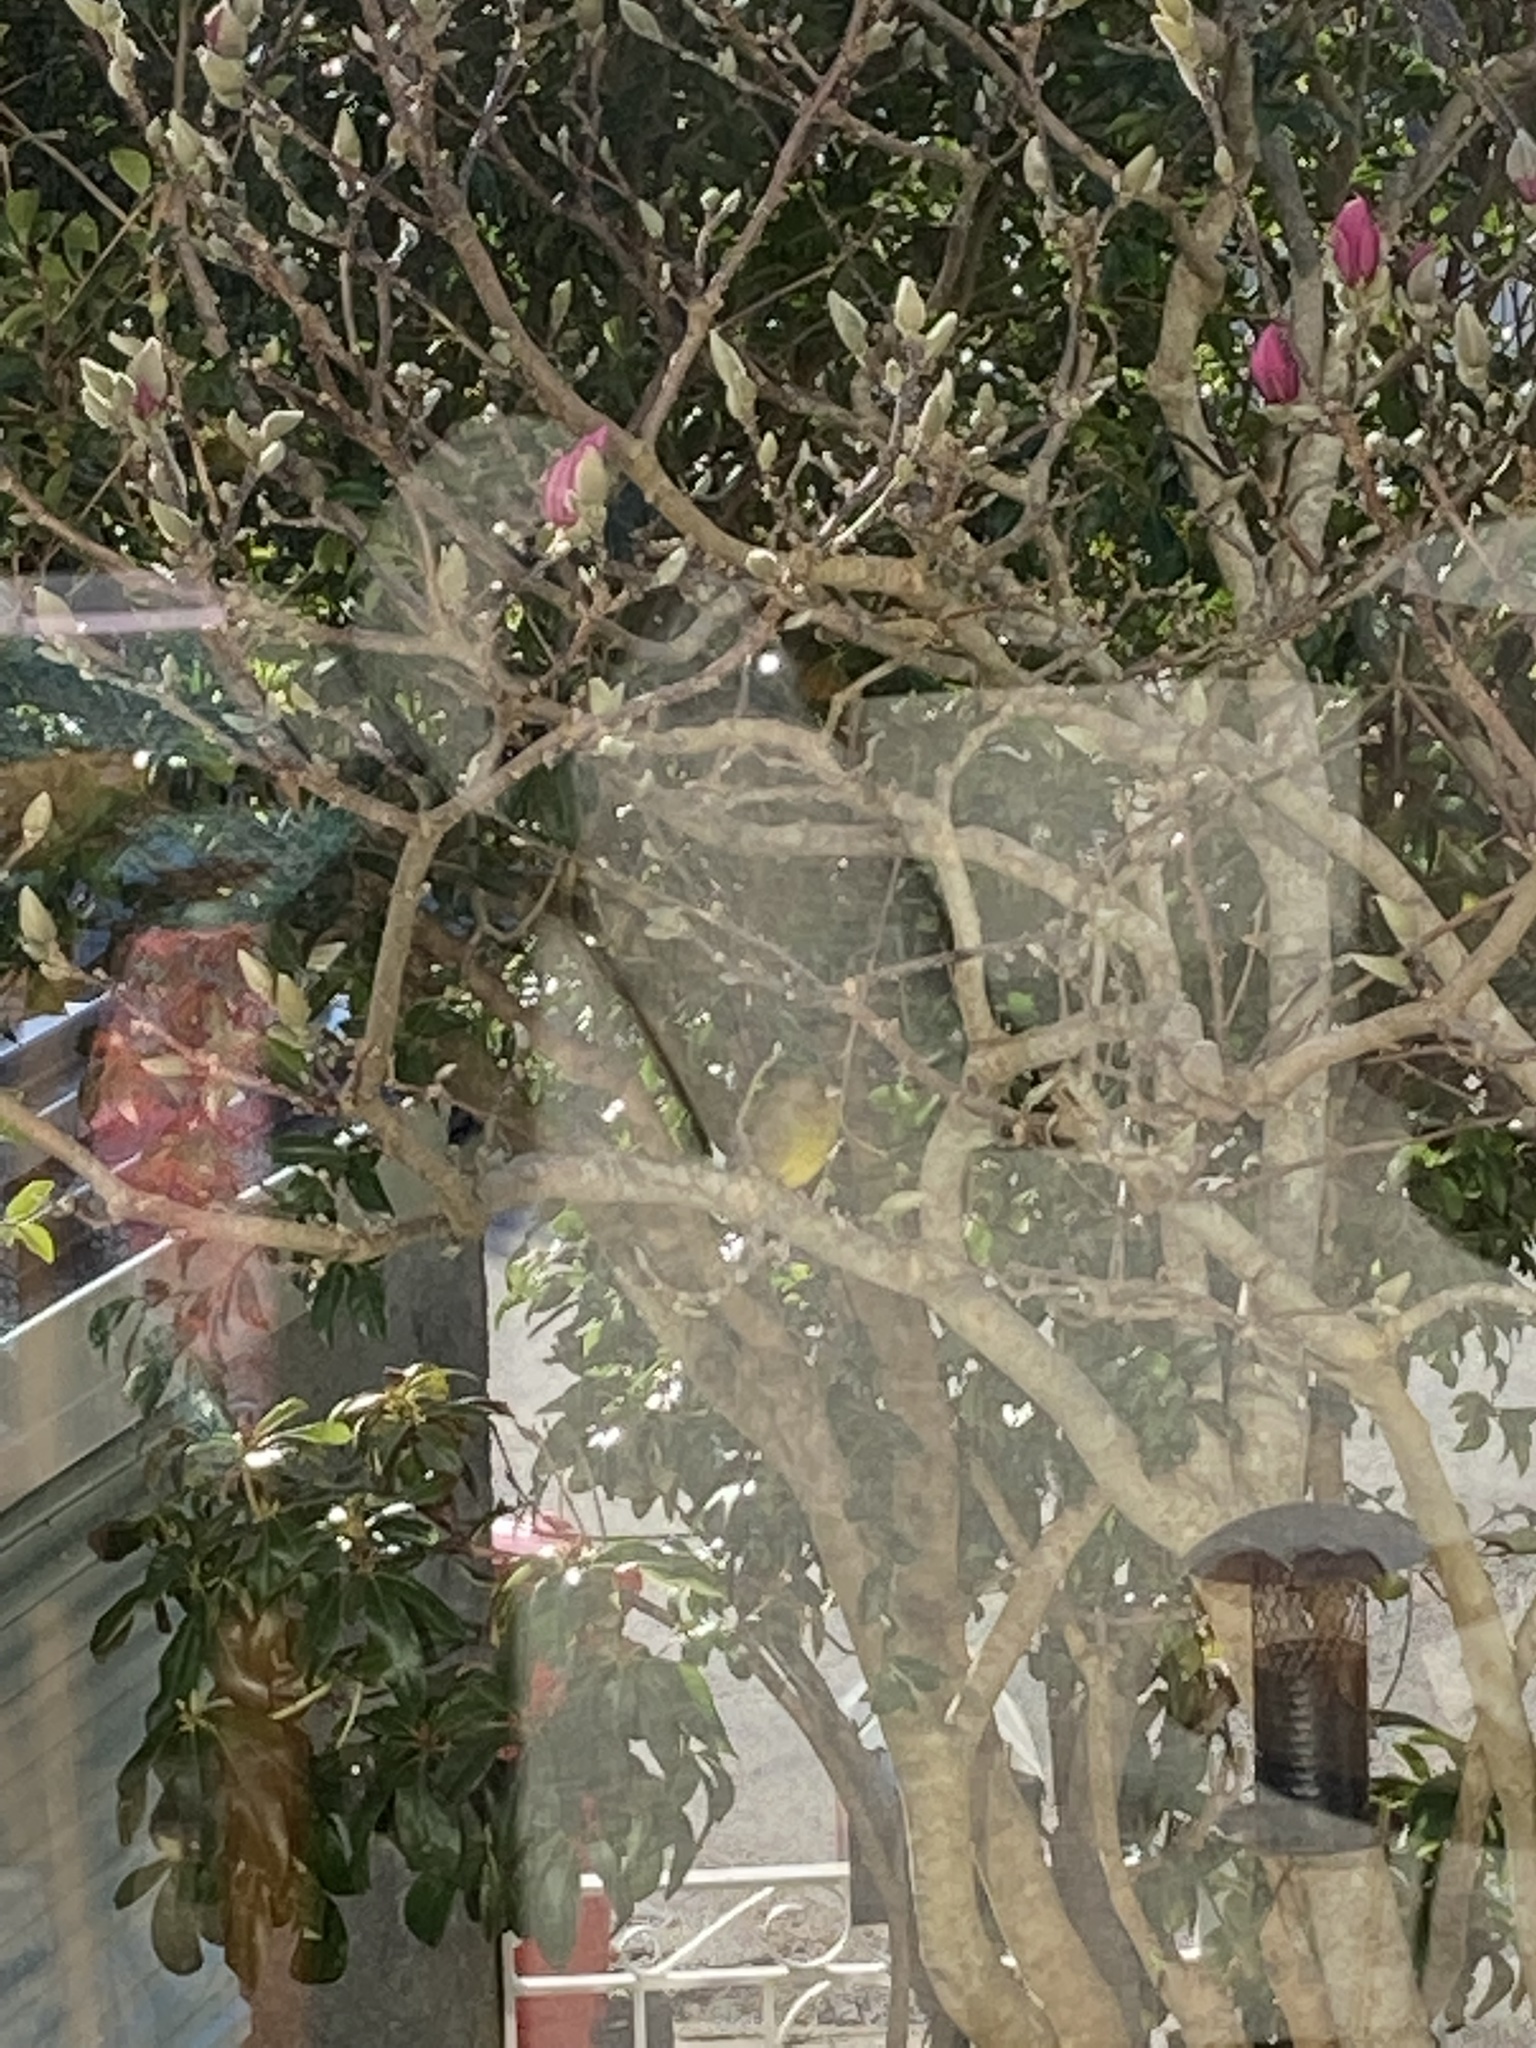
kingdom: Plantae
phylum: Tracheophyta
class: Liliopsida
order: Poales
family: Poaceae
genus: Chloris
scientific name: Chloris chloris
